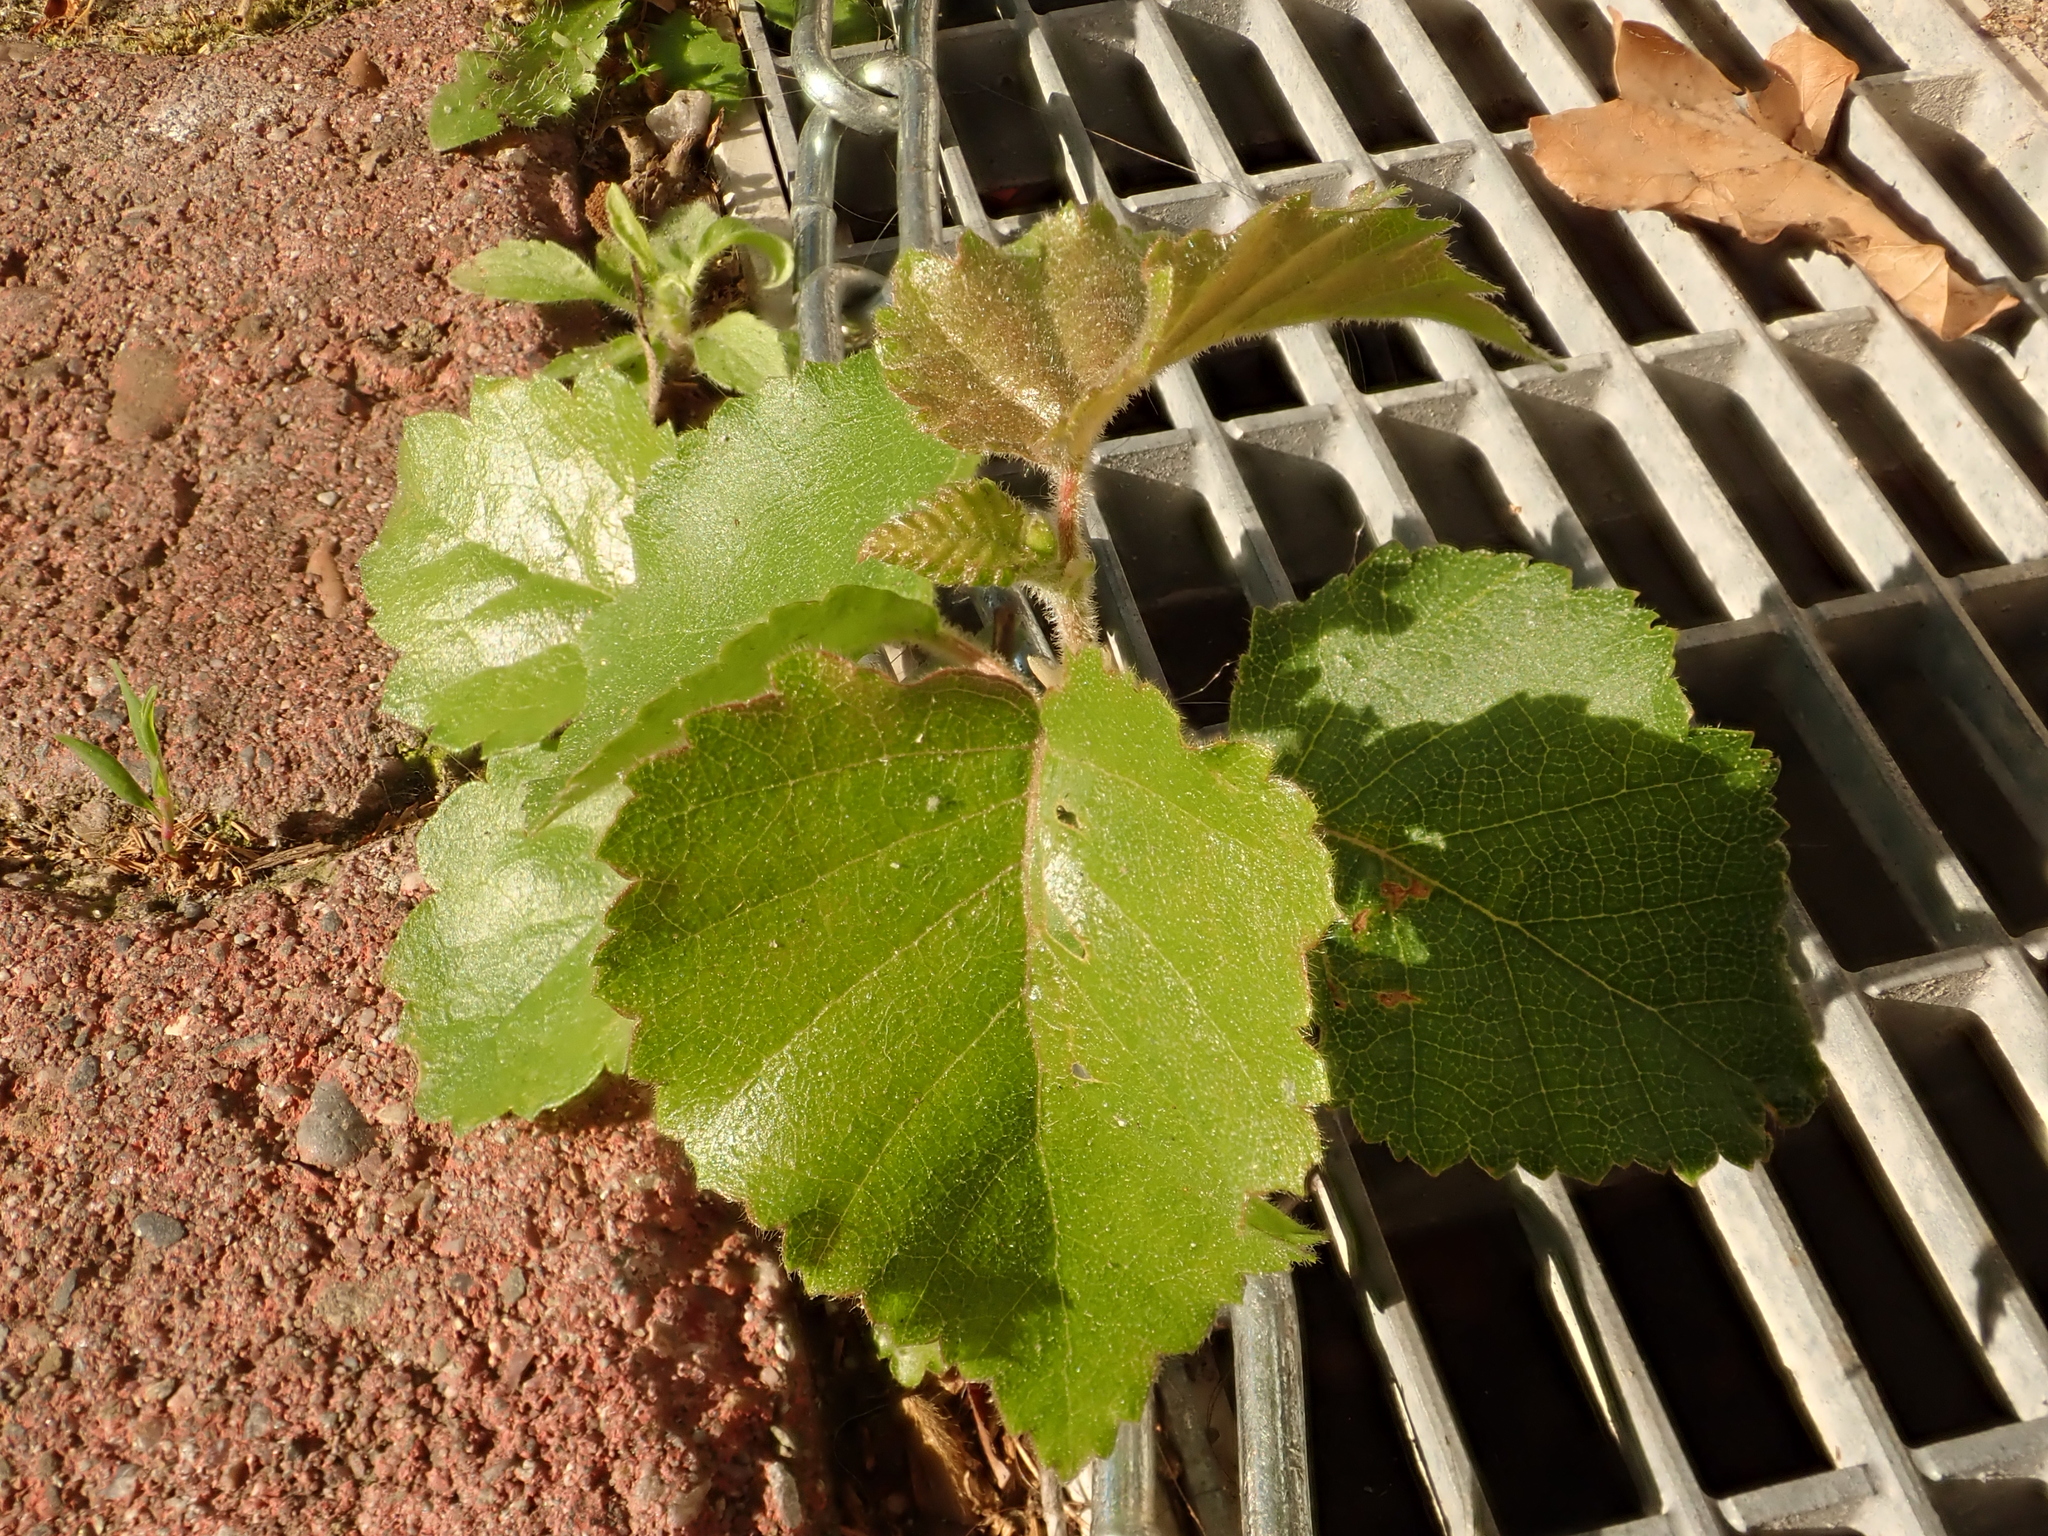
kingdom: Plantae
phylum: Tracheophyta
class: Magnoliopsida
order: Fagales
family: Betulaceae
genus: Betula
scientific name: Betula pendula
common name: Silver birch
